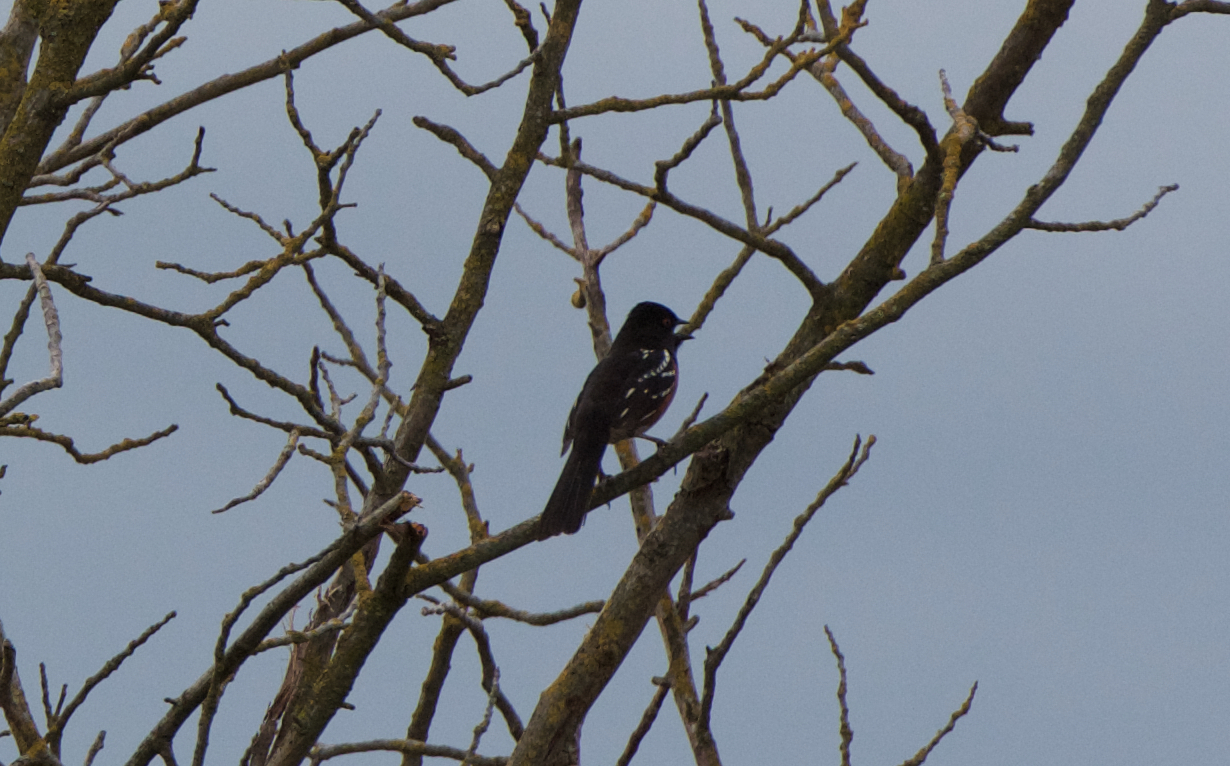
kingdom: Animalia
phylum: Chordata
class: Aves
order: Passeriformes
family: Passerellidae
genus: Pipilo
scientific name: Pipilo maculatus
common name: Spotted towhee
